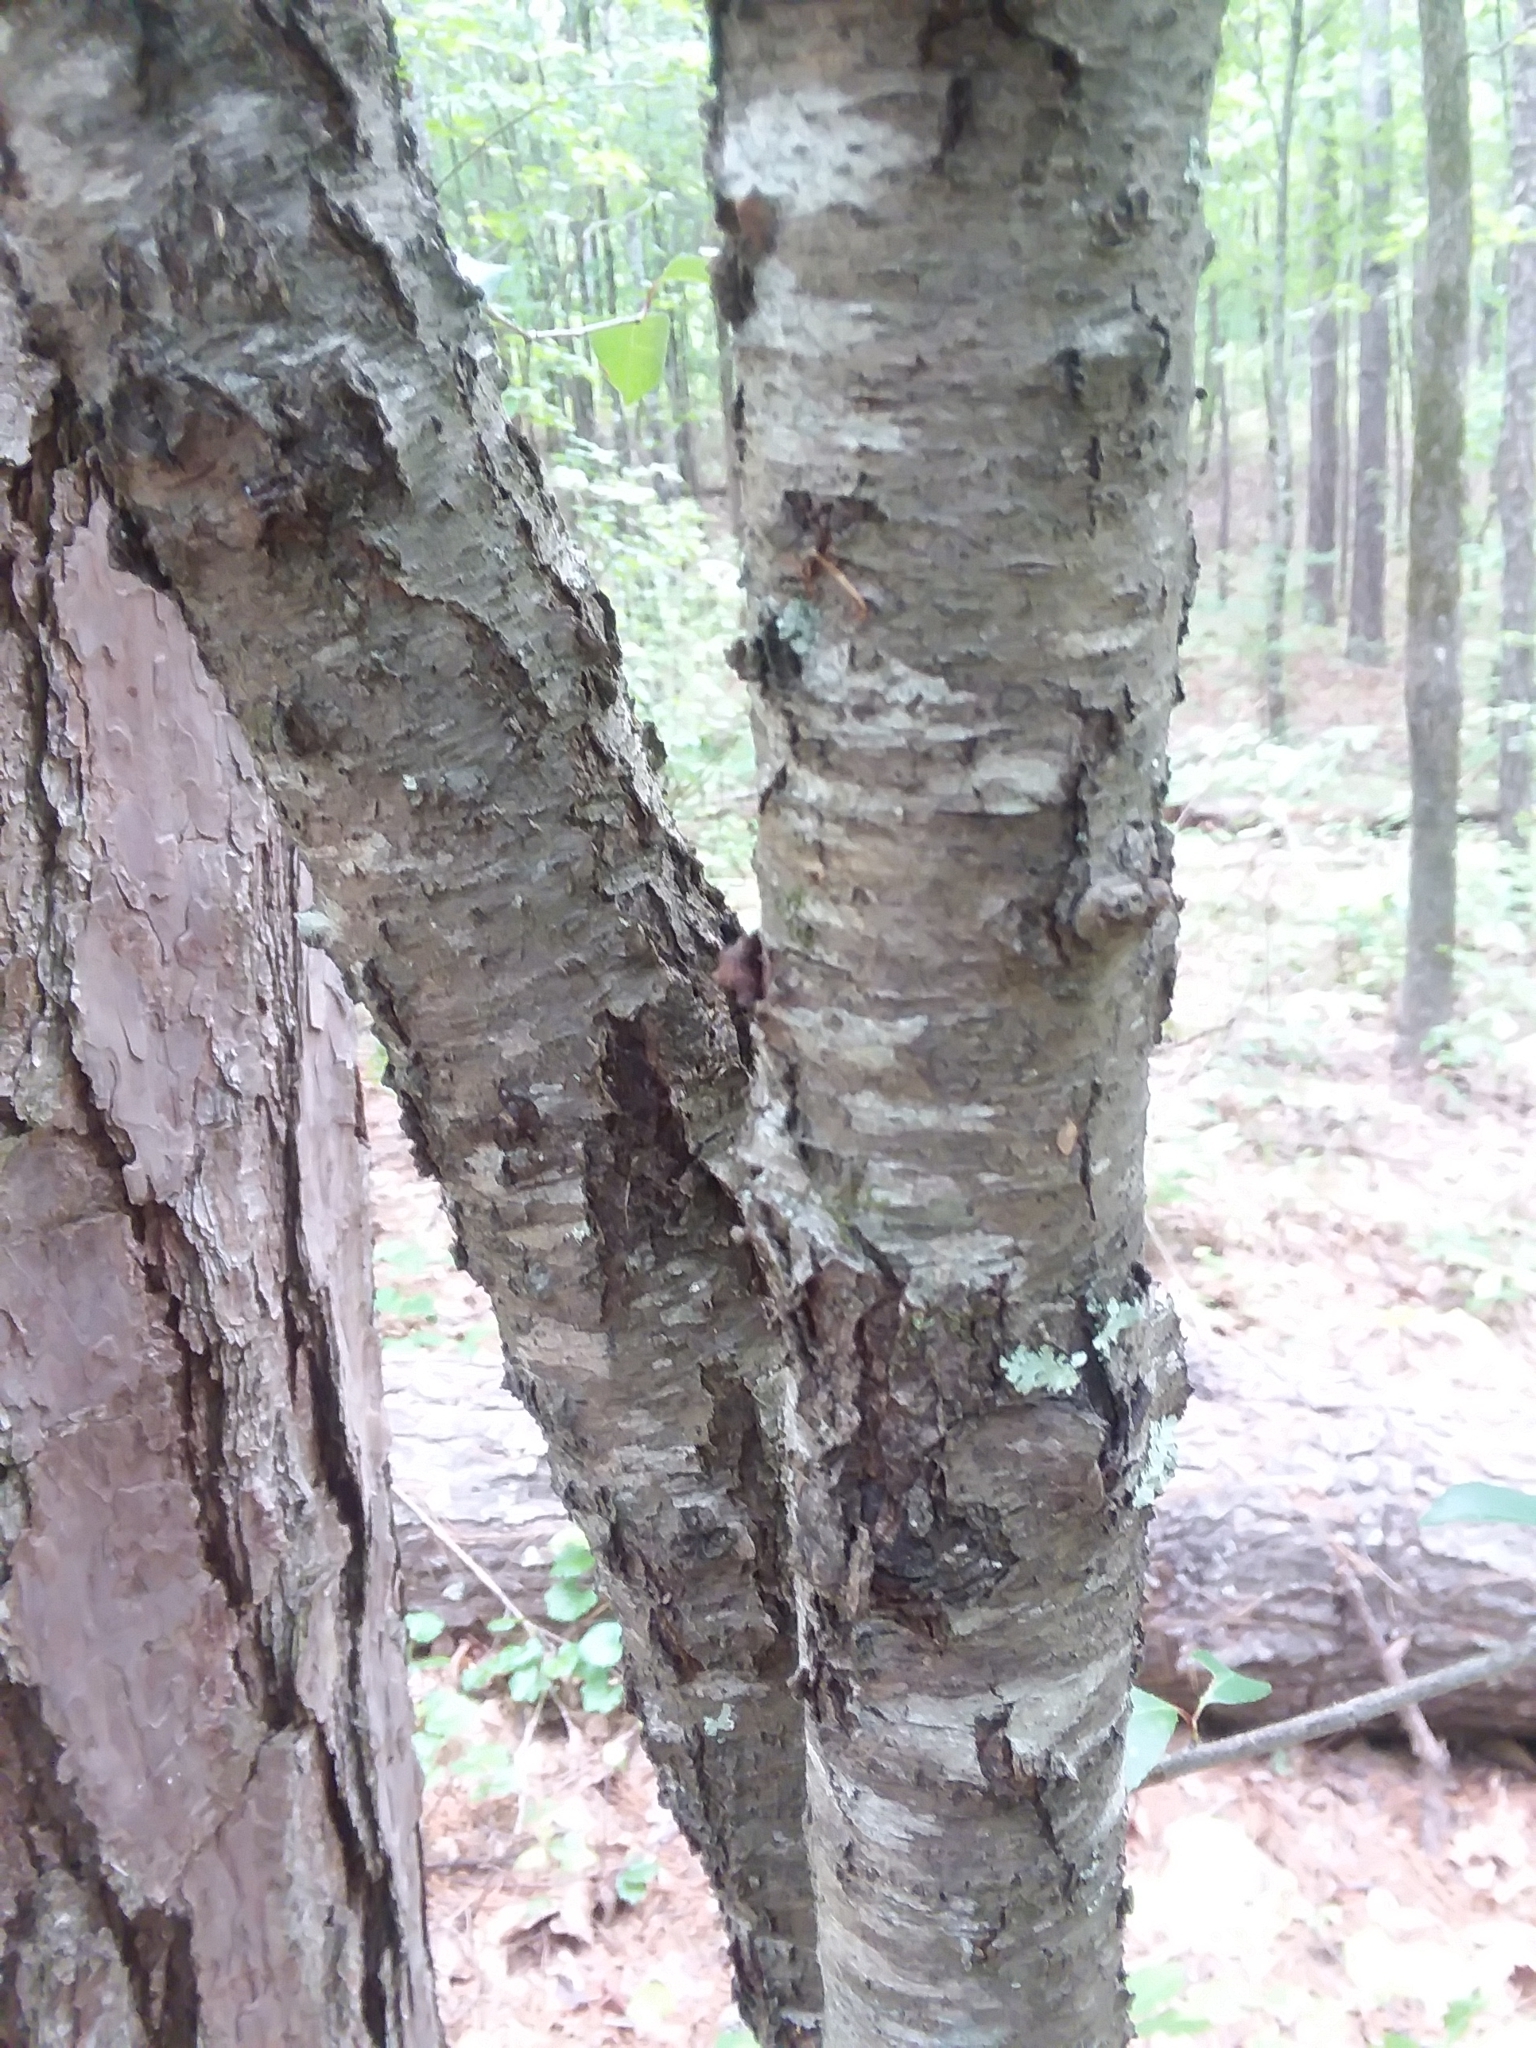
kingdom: Plantae
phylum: Tracheophyta
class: Magnoliopsida
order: Rosales
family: Rosaceae
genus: Prunus
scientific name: Prunus serotina
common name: Black cherry
